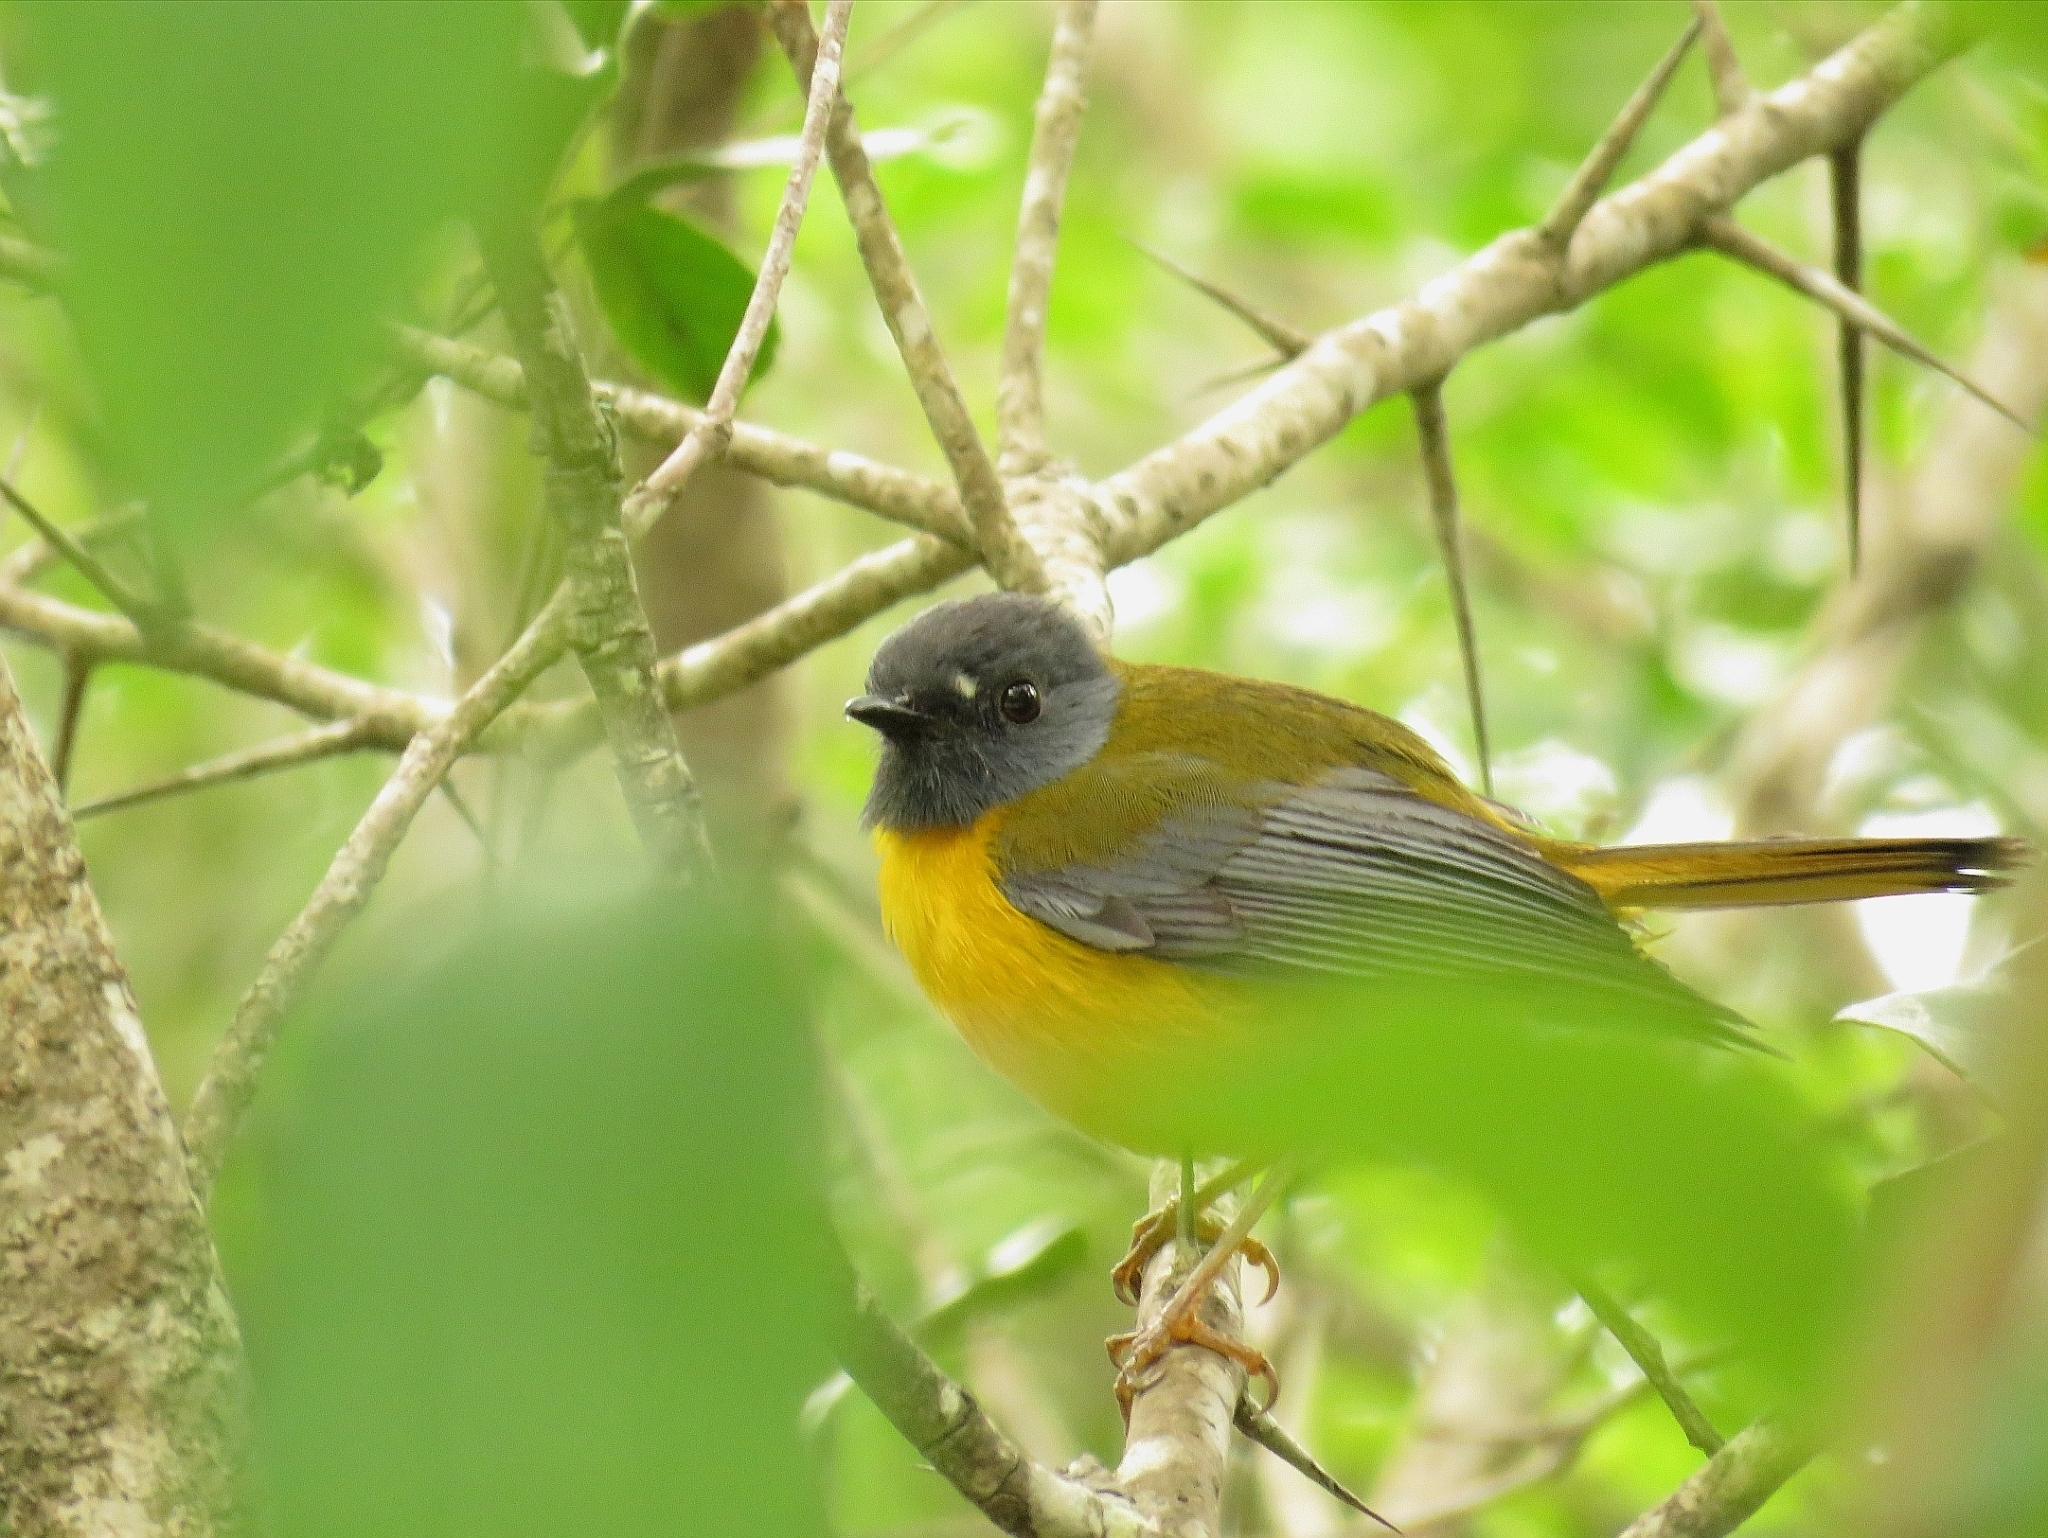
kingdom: Animalia
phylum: Chordata
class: Aves
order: Passeriformes
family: Muscicapidae
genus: Pogonocichla
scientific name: Pogonocichla stellata
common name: White-starred robin
